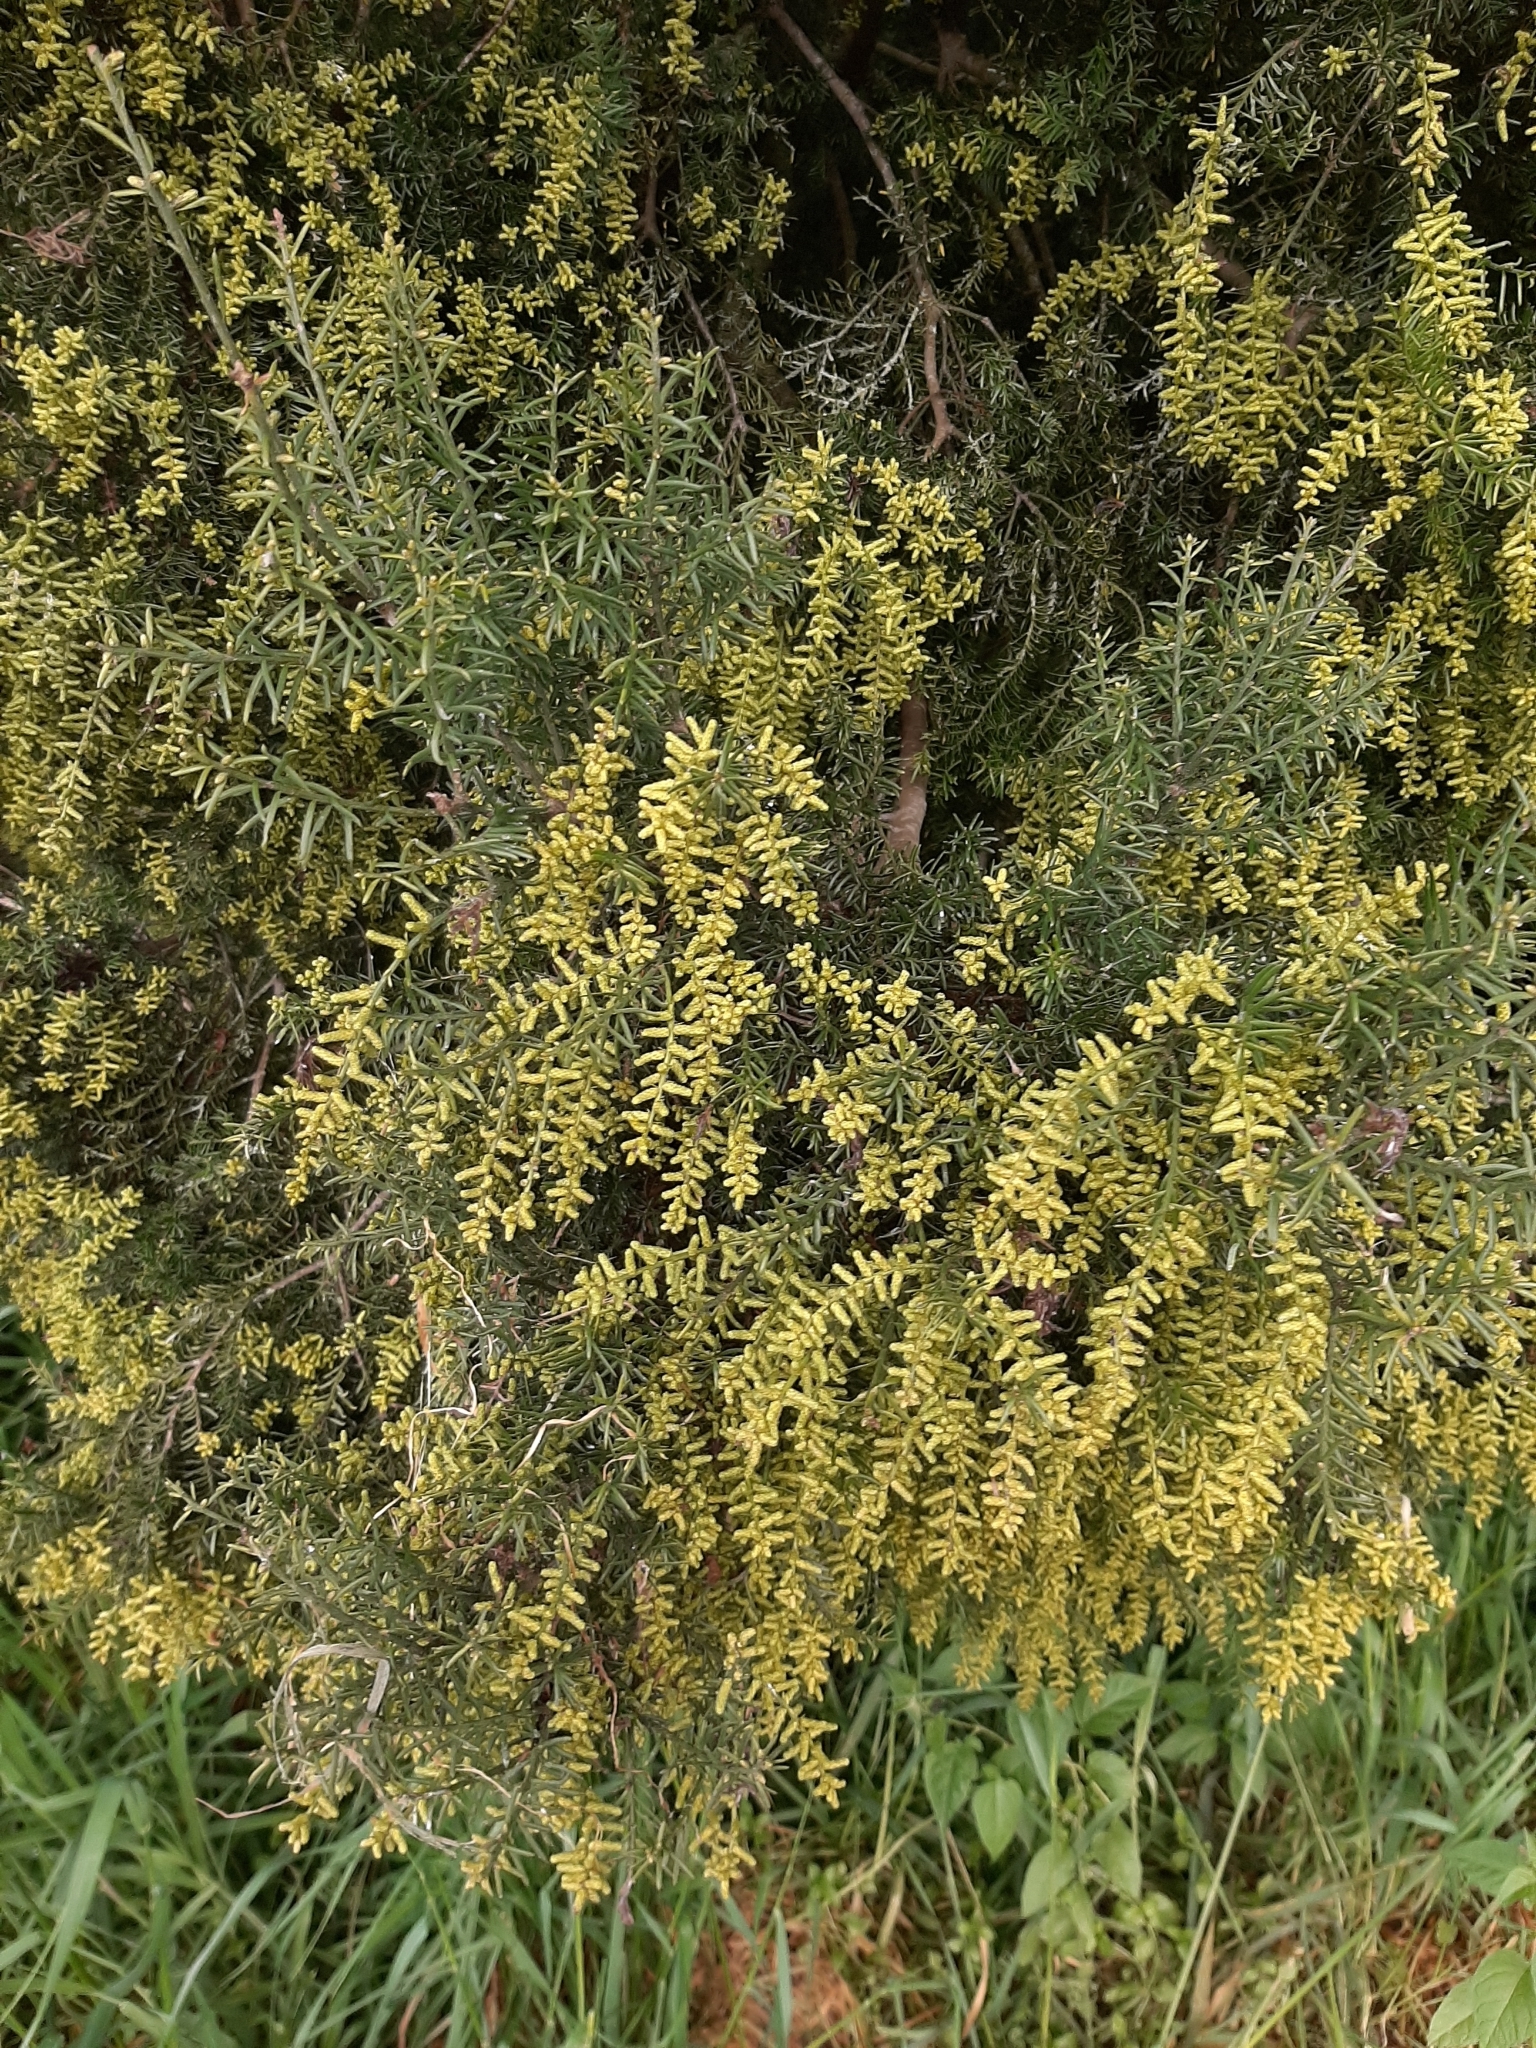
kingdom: Plantae
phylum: Tracheophyta
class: Pinopsida
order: Pinales
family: Podocarpaceae
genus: Prumnopitys
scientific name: Prumnopitys taxifolia
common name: Matai
